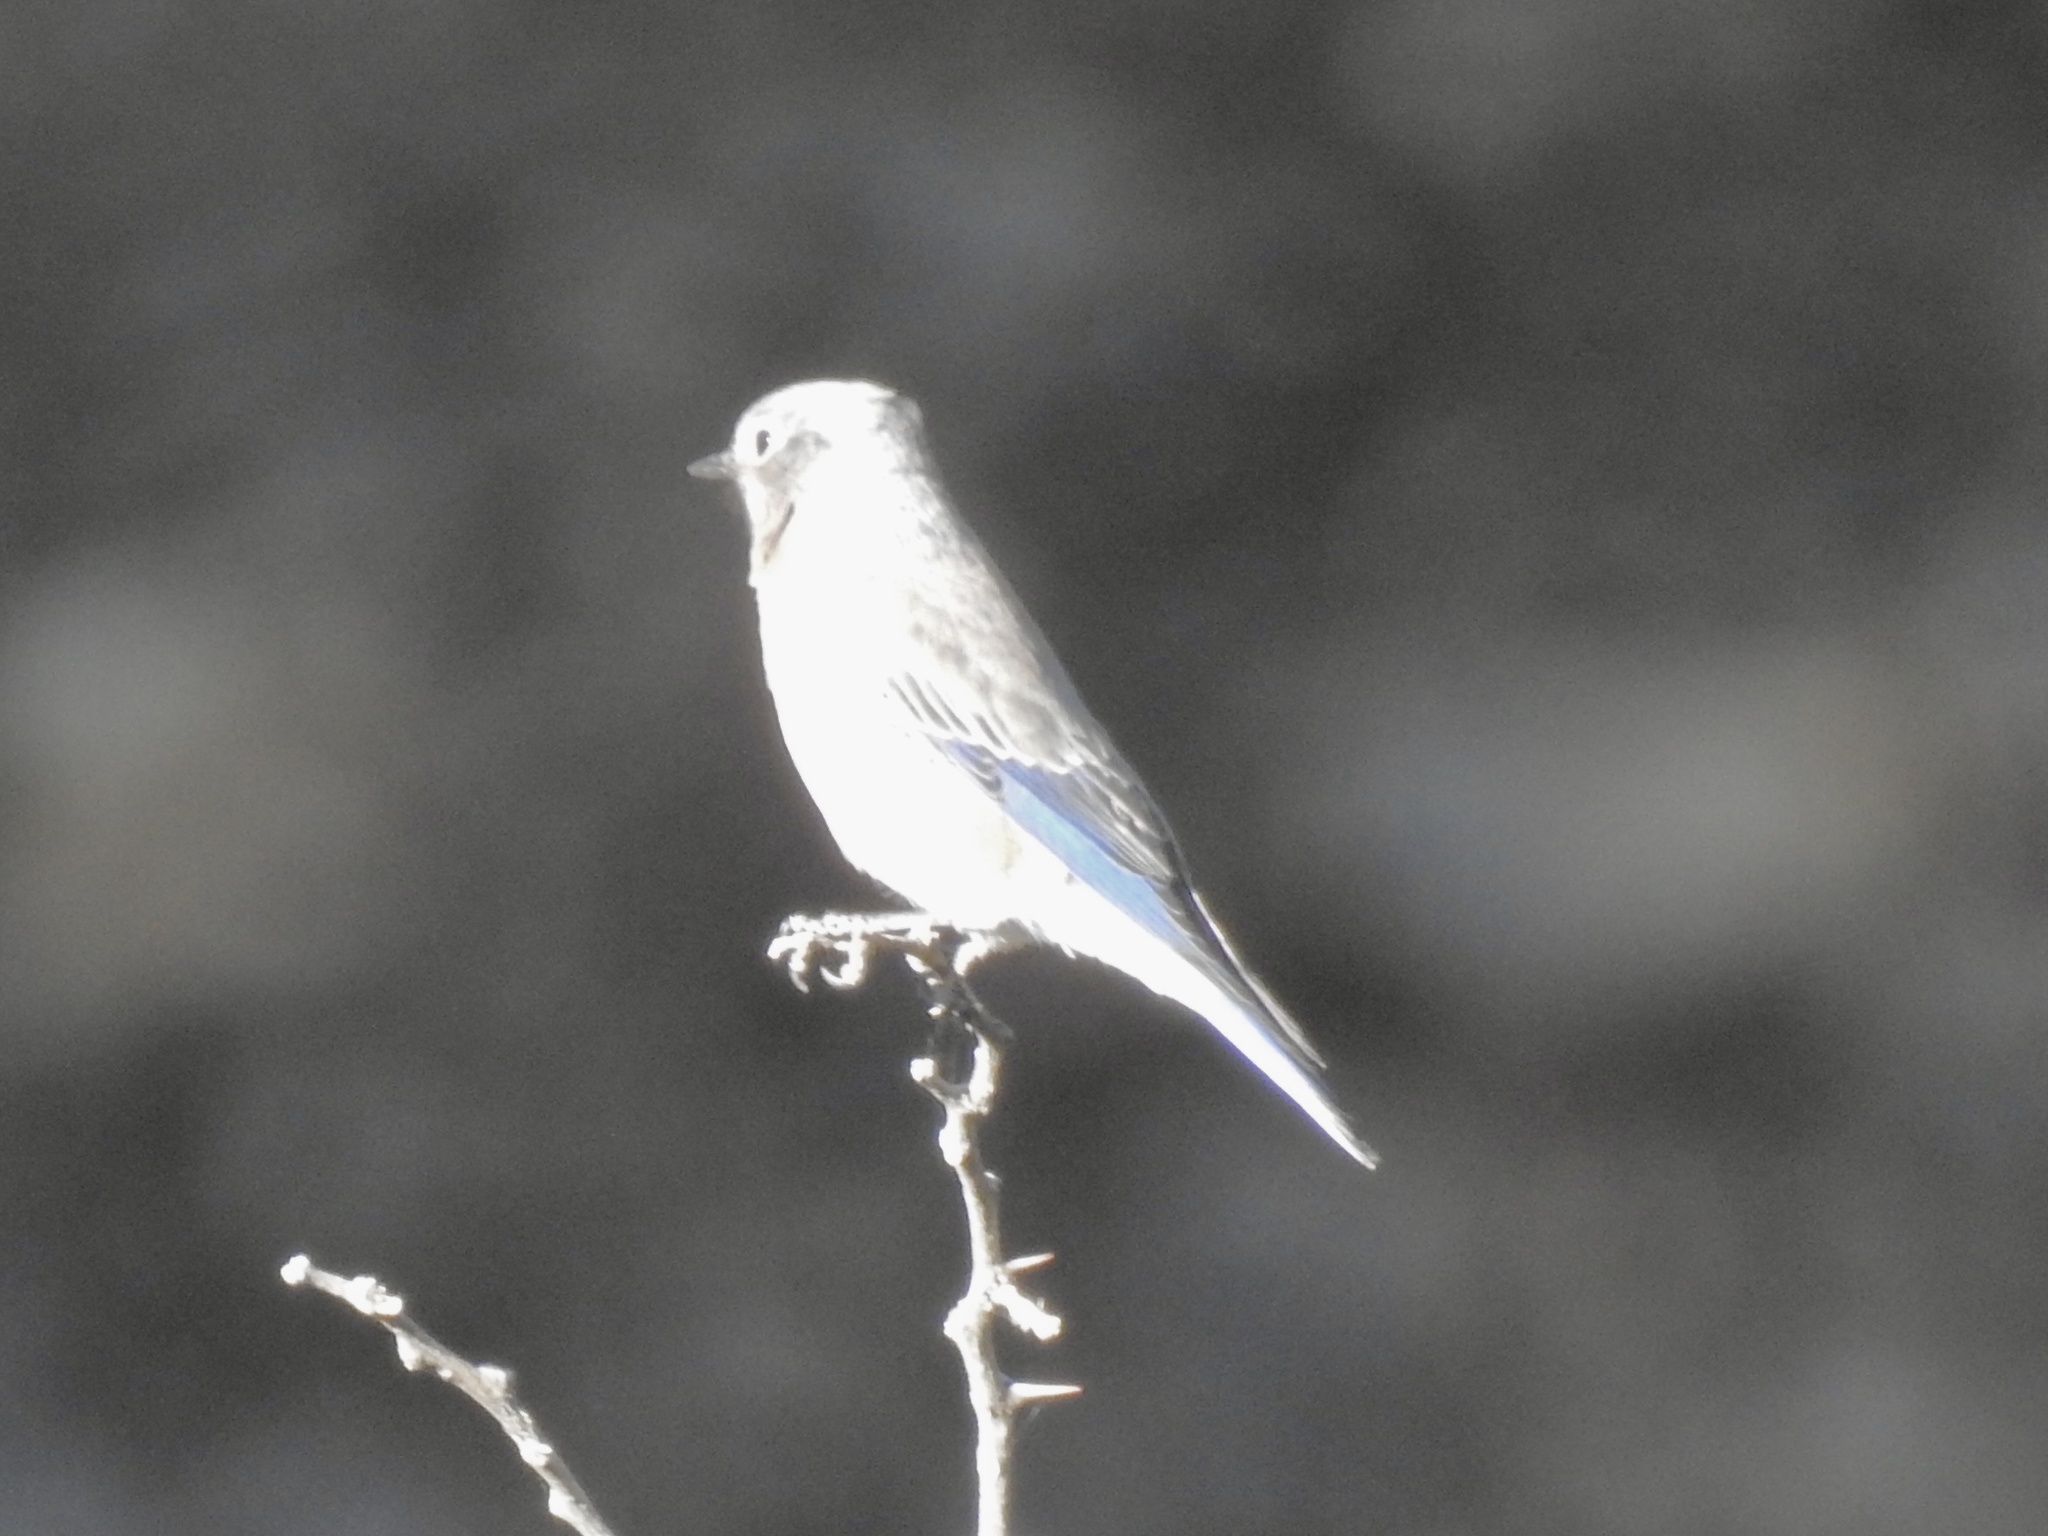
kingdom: Animalia
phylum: Chordata
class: Aves
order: Passeriformes
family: Turdidae
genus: Sialia
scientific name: Sialia currucoides
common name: Mountain bluebird
